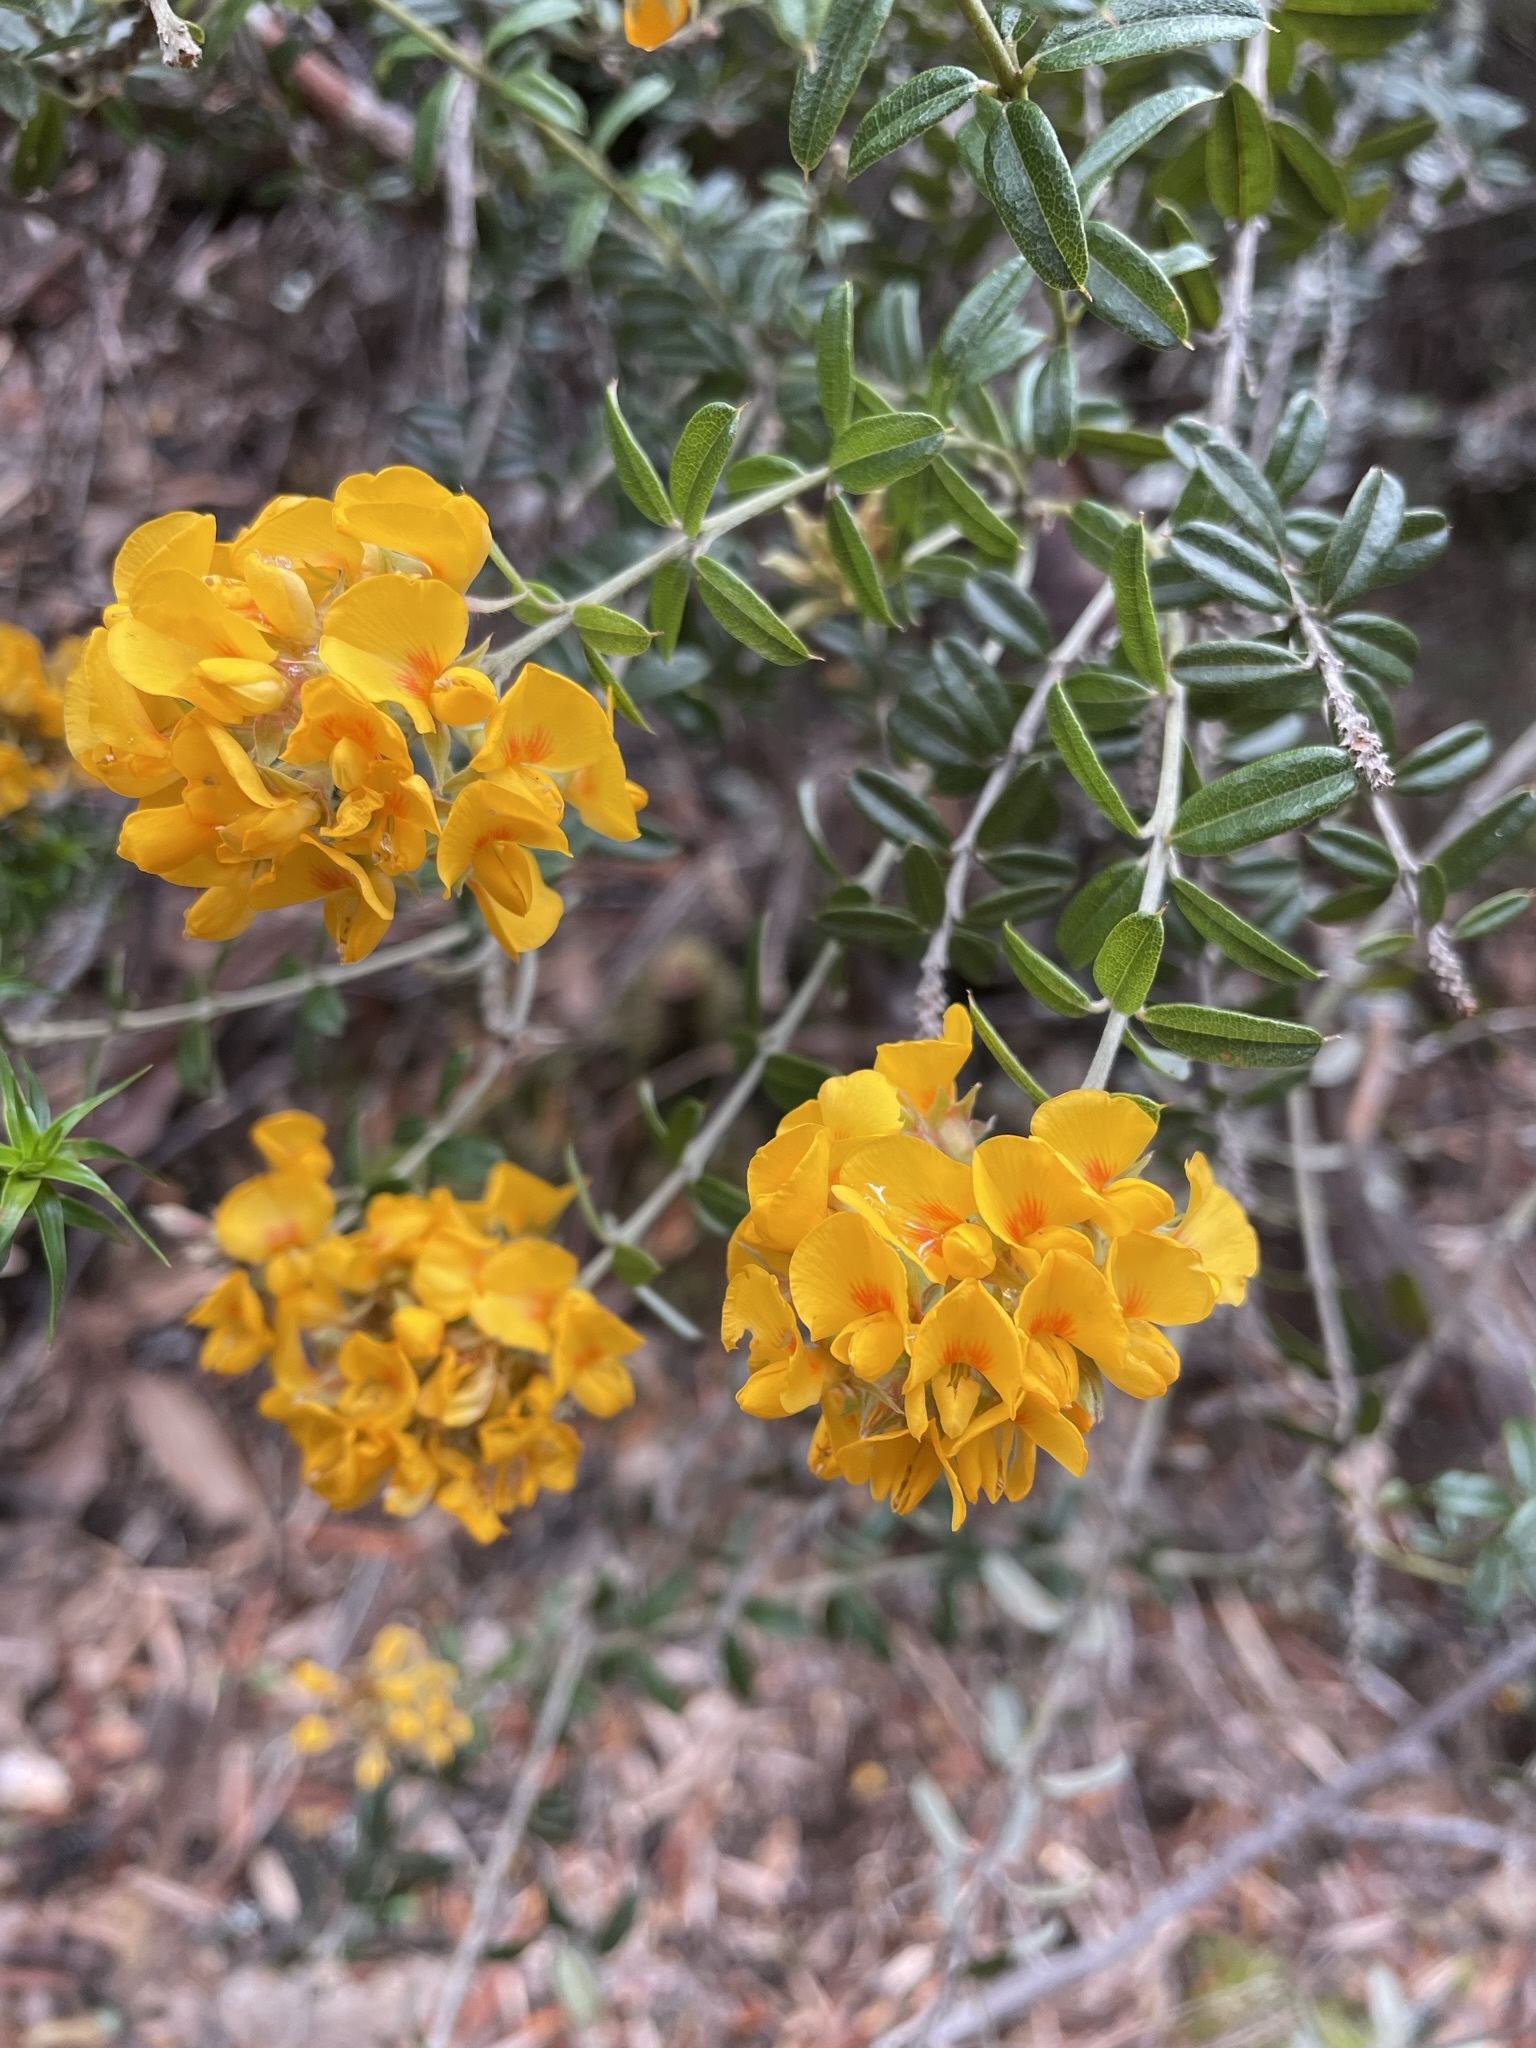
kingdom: Plantae
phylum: Tracheophyta
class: Magnoliopsida
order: Fabales
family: Fabaceae
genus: Oxylobium
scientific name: Oxylobium ellipticum
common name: Golden shaggy-pea
